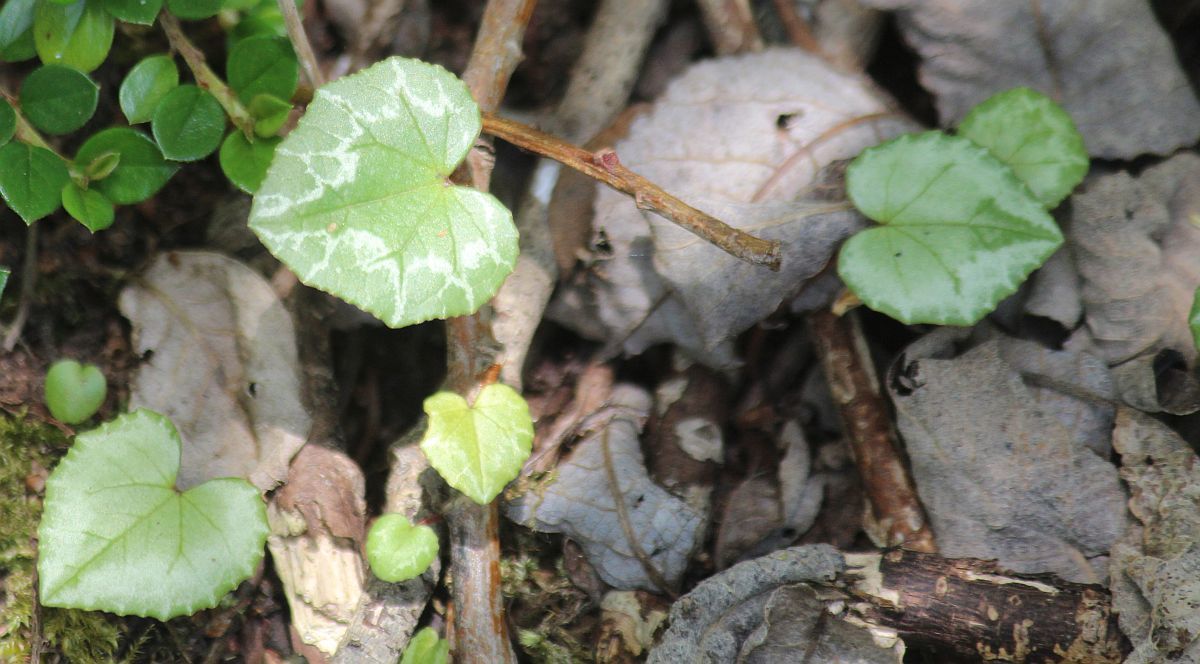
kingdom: Plantae
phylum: Tracheophyta
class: Magnoliopsida
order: Ericales
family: Primulaceae
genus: Cyclamen
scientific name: Cyclamen hederifolium
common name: Sowbread
